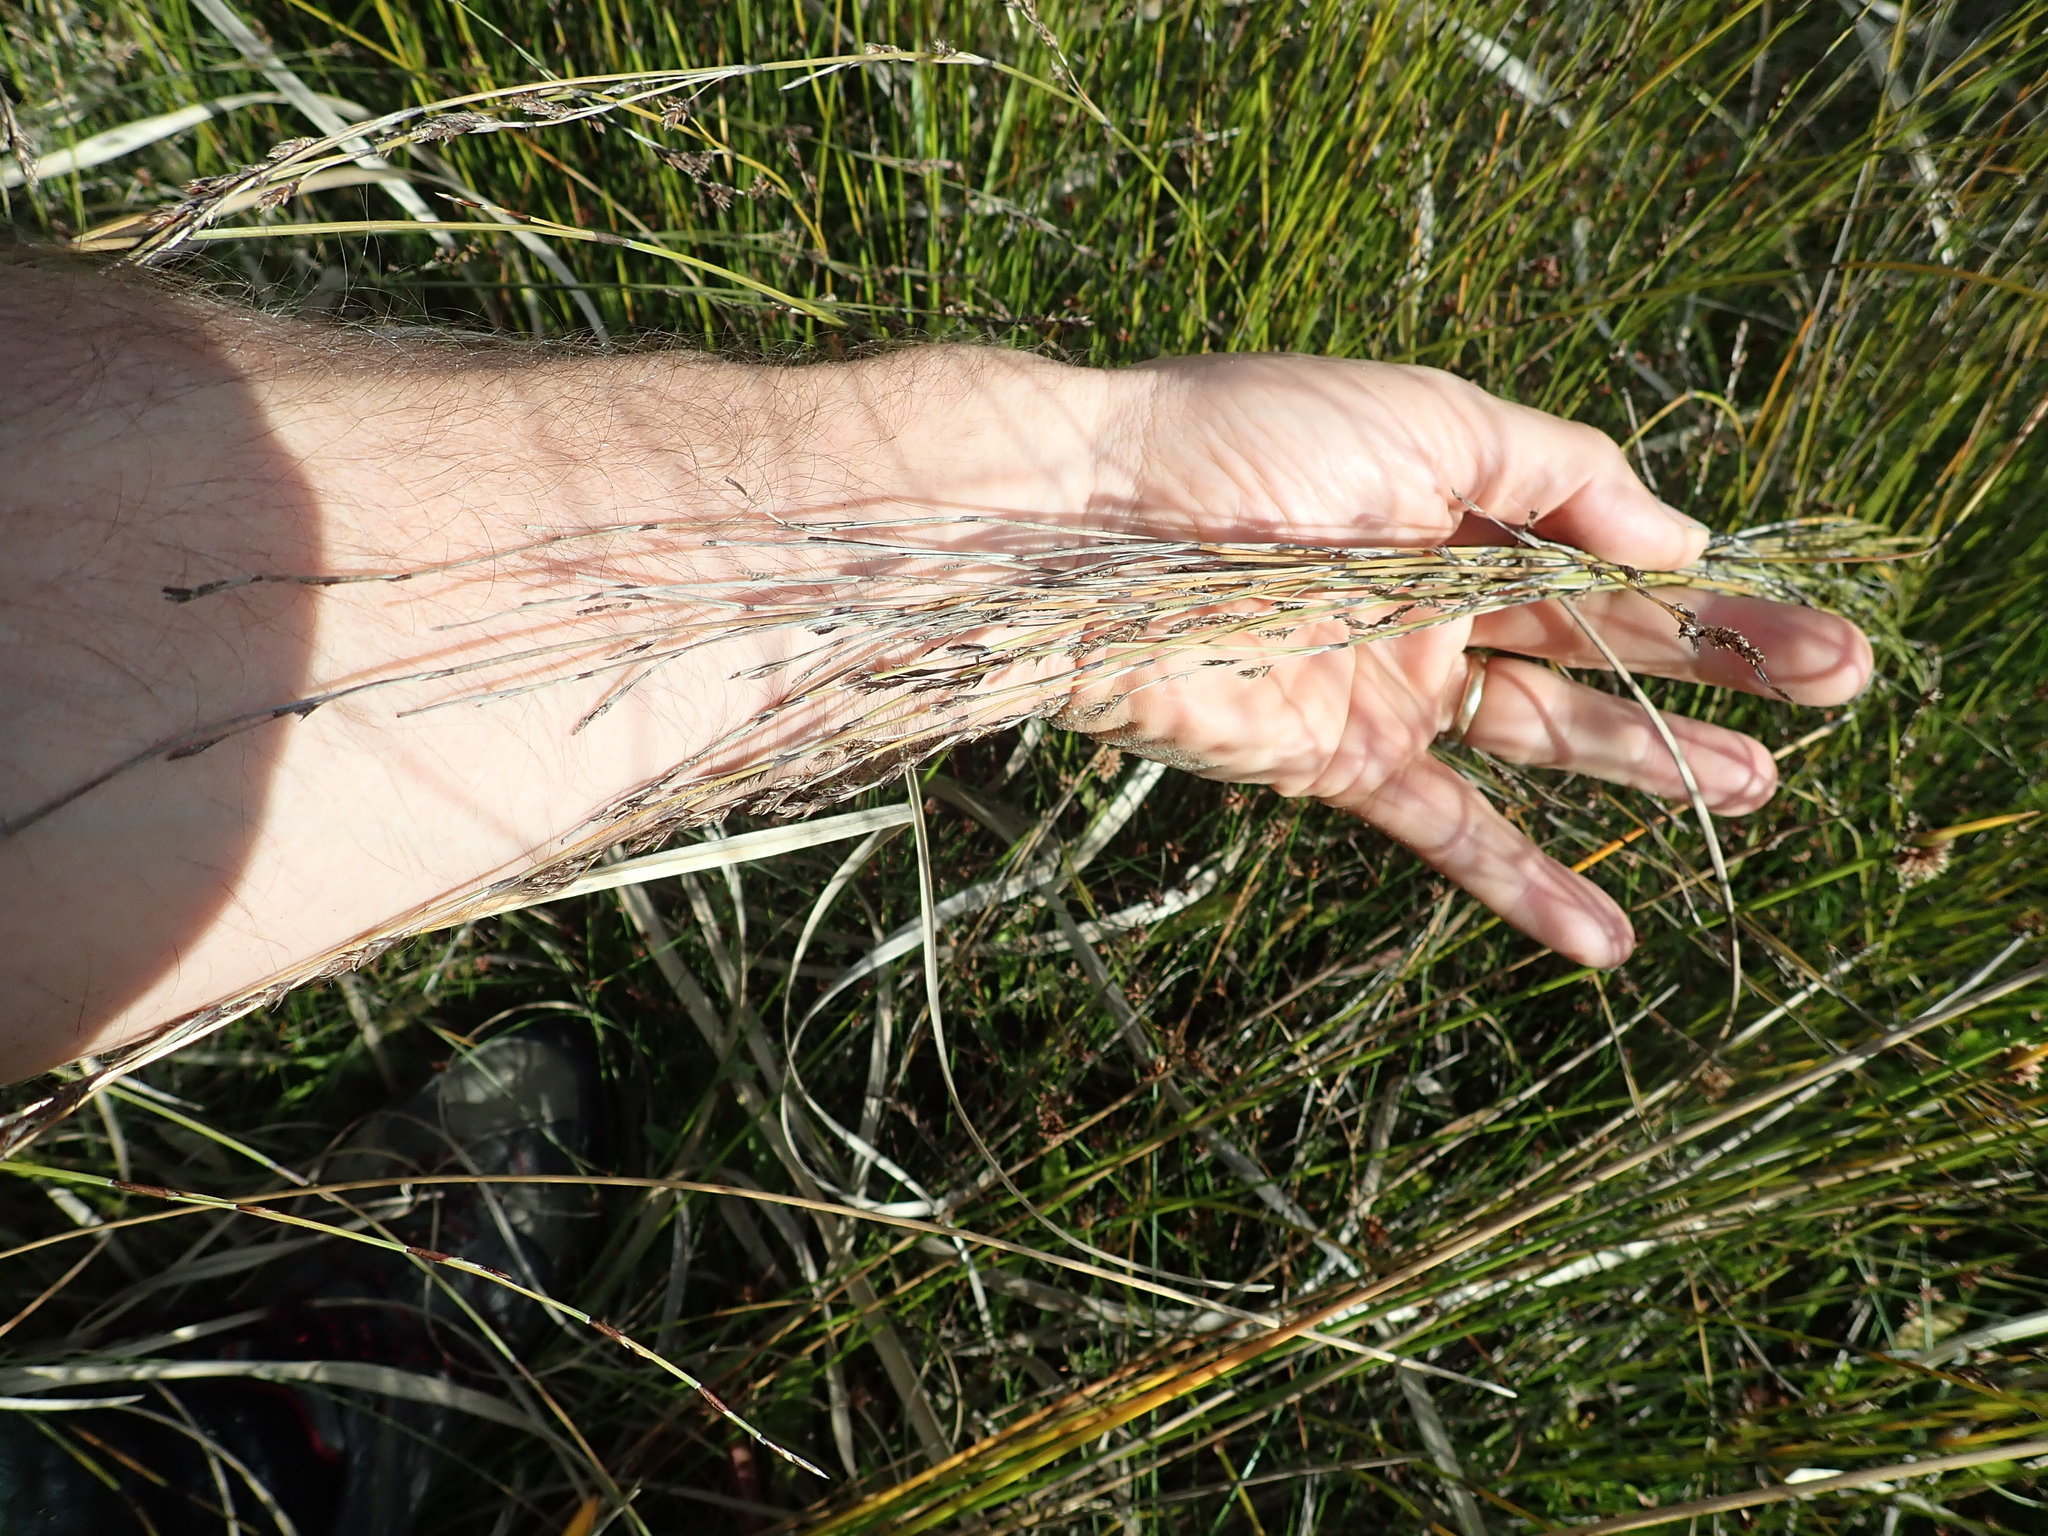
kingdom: Plantae
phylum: Tracheophyta
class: Liliopsida
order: Poales
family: Restionaceae
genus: Apodasmia
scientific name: Apodasmia similis
